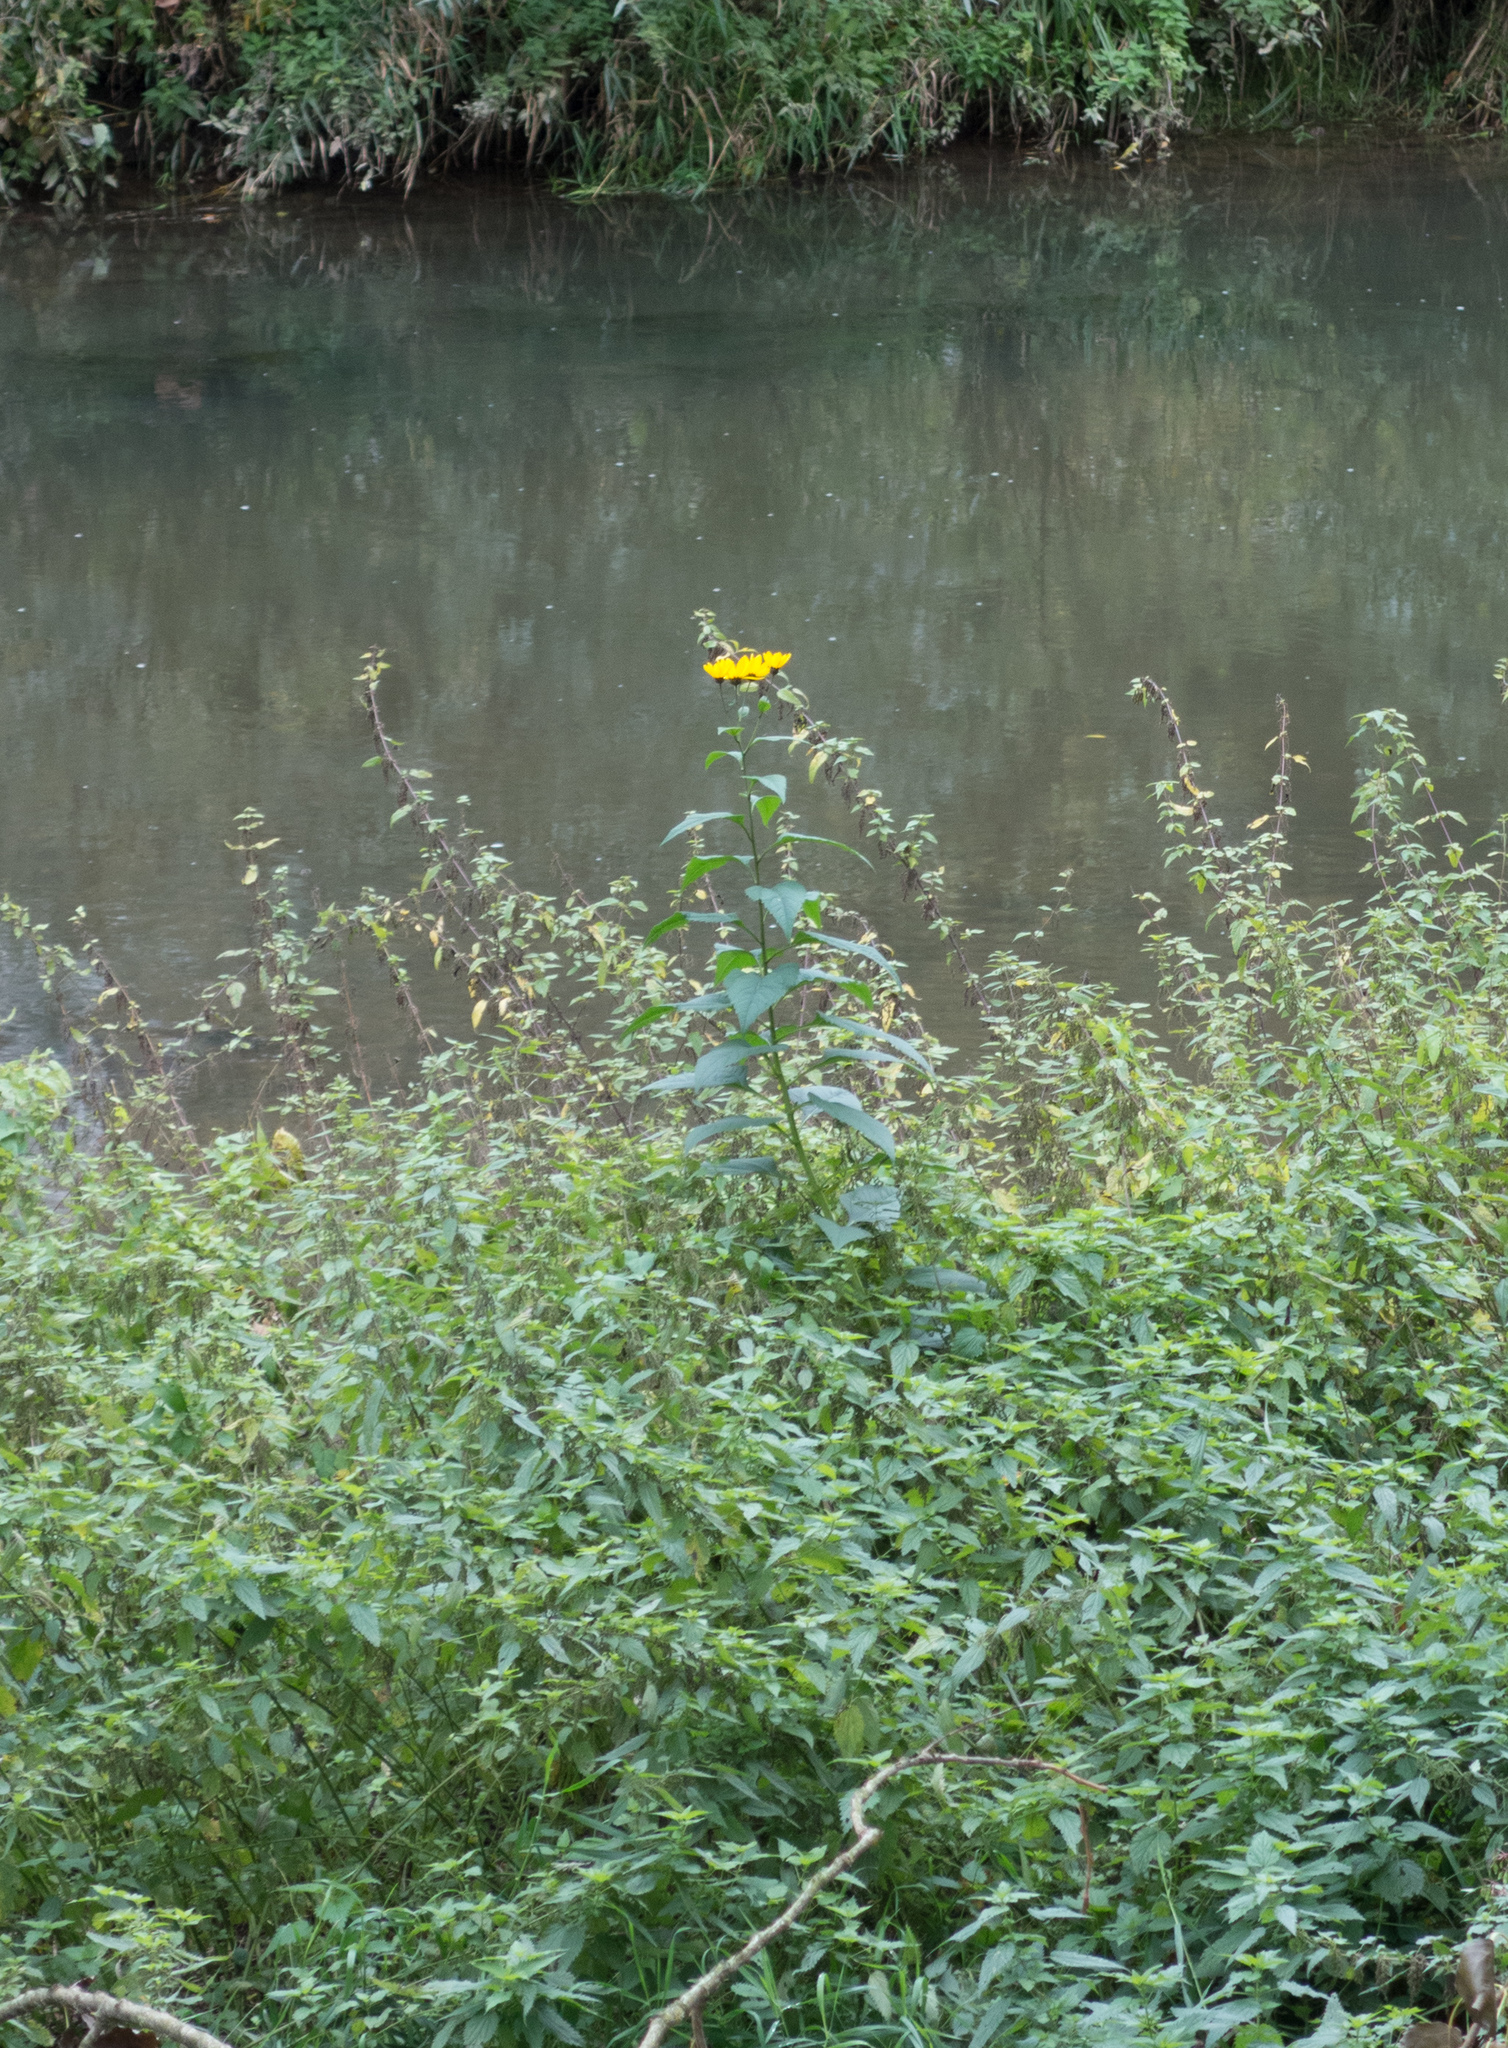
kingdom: Plantae
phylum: Tracheophyta
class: Magnoliopsida
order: Asterales
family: Asteraceae
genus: Helianthus
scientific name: Helianthus tuberosus
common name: Jerusalem artichoke
